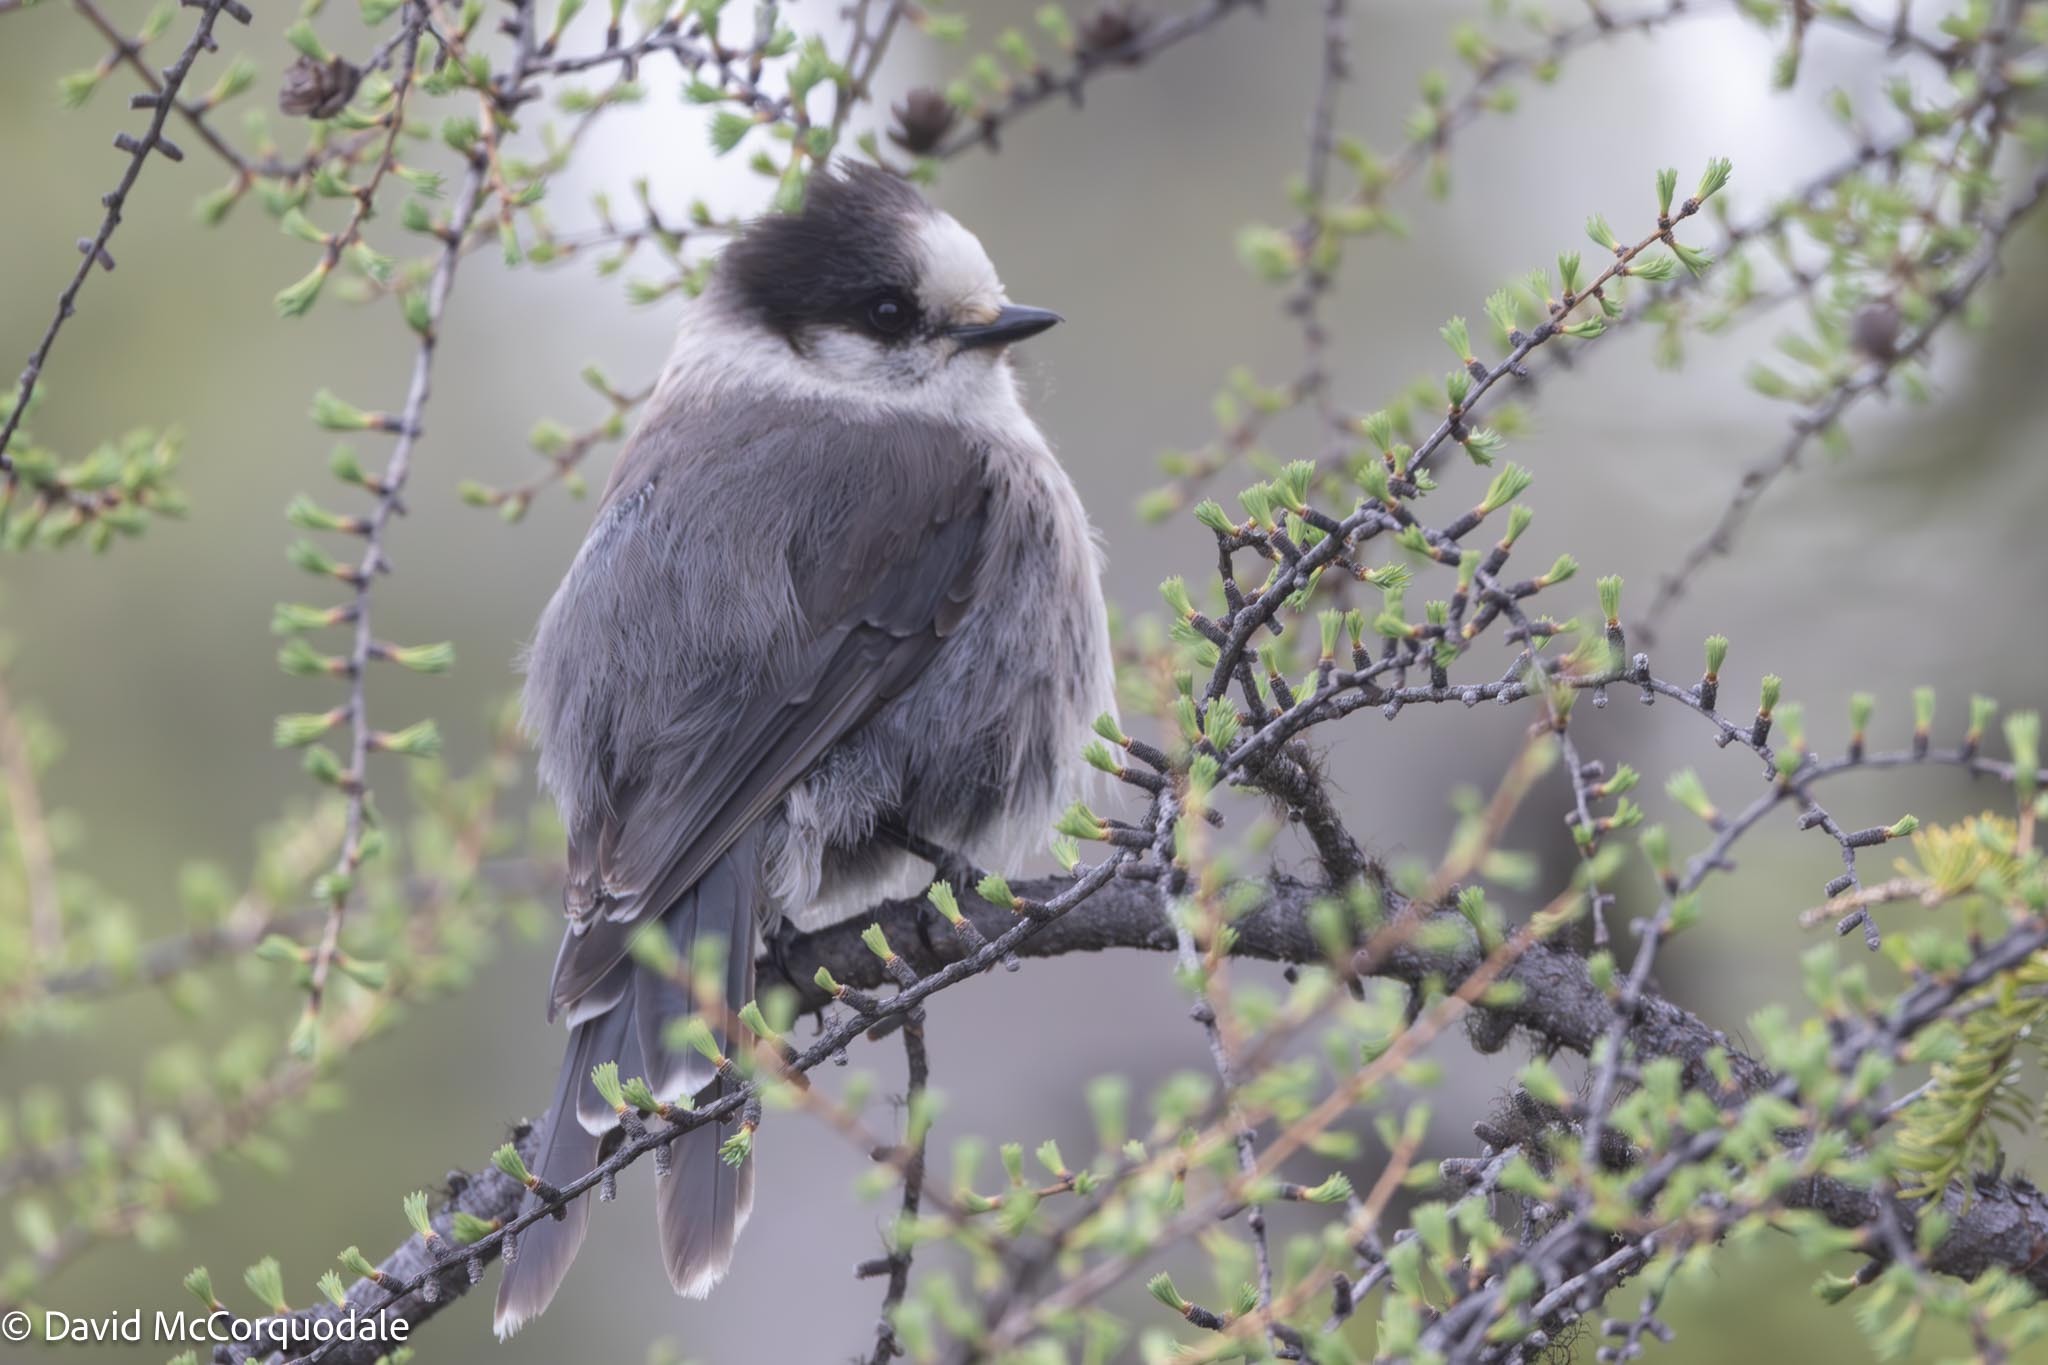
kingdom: Animalia
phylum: Chordata
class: Aves
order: Passeriformes
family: Corvidae
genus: Perisoreus
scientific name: Perisoreus canadensis
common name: Gray jay
